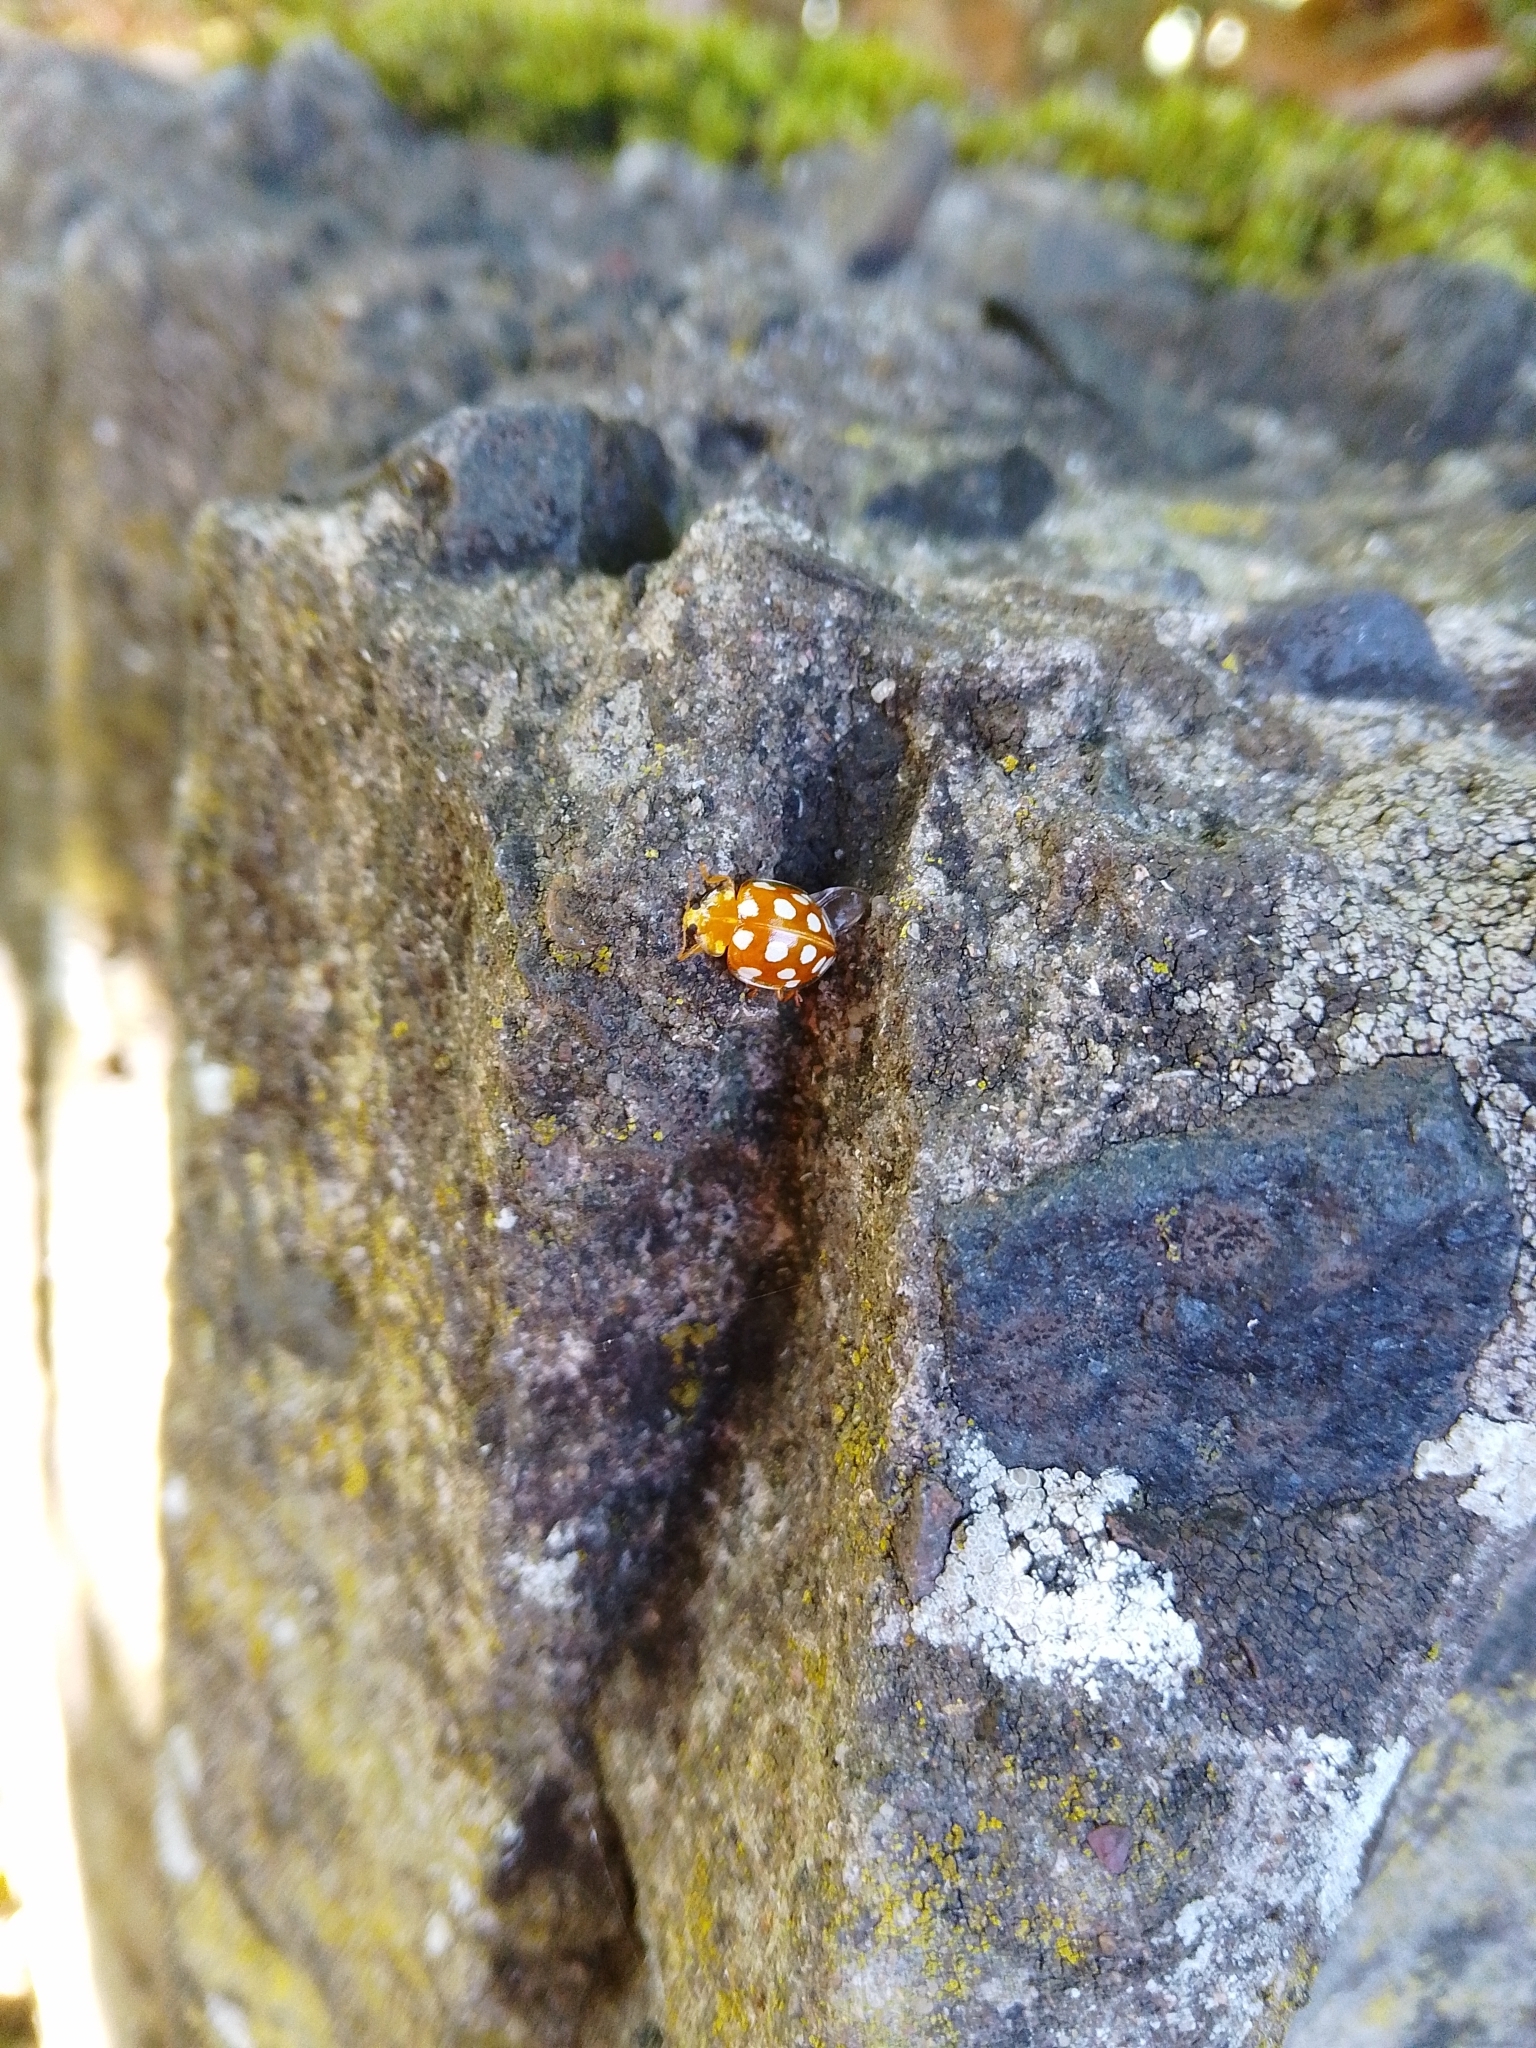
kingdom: Animalia
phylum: Arthropoda
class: Insecta
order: Coleoptera
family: Coccinellidae
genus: Halyzia
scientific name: Halyzia sedecimguttata
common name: Orange ladybird
